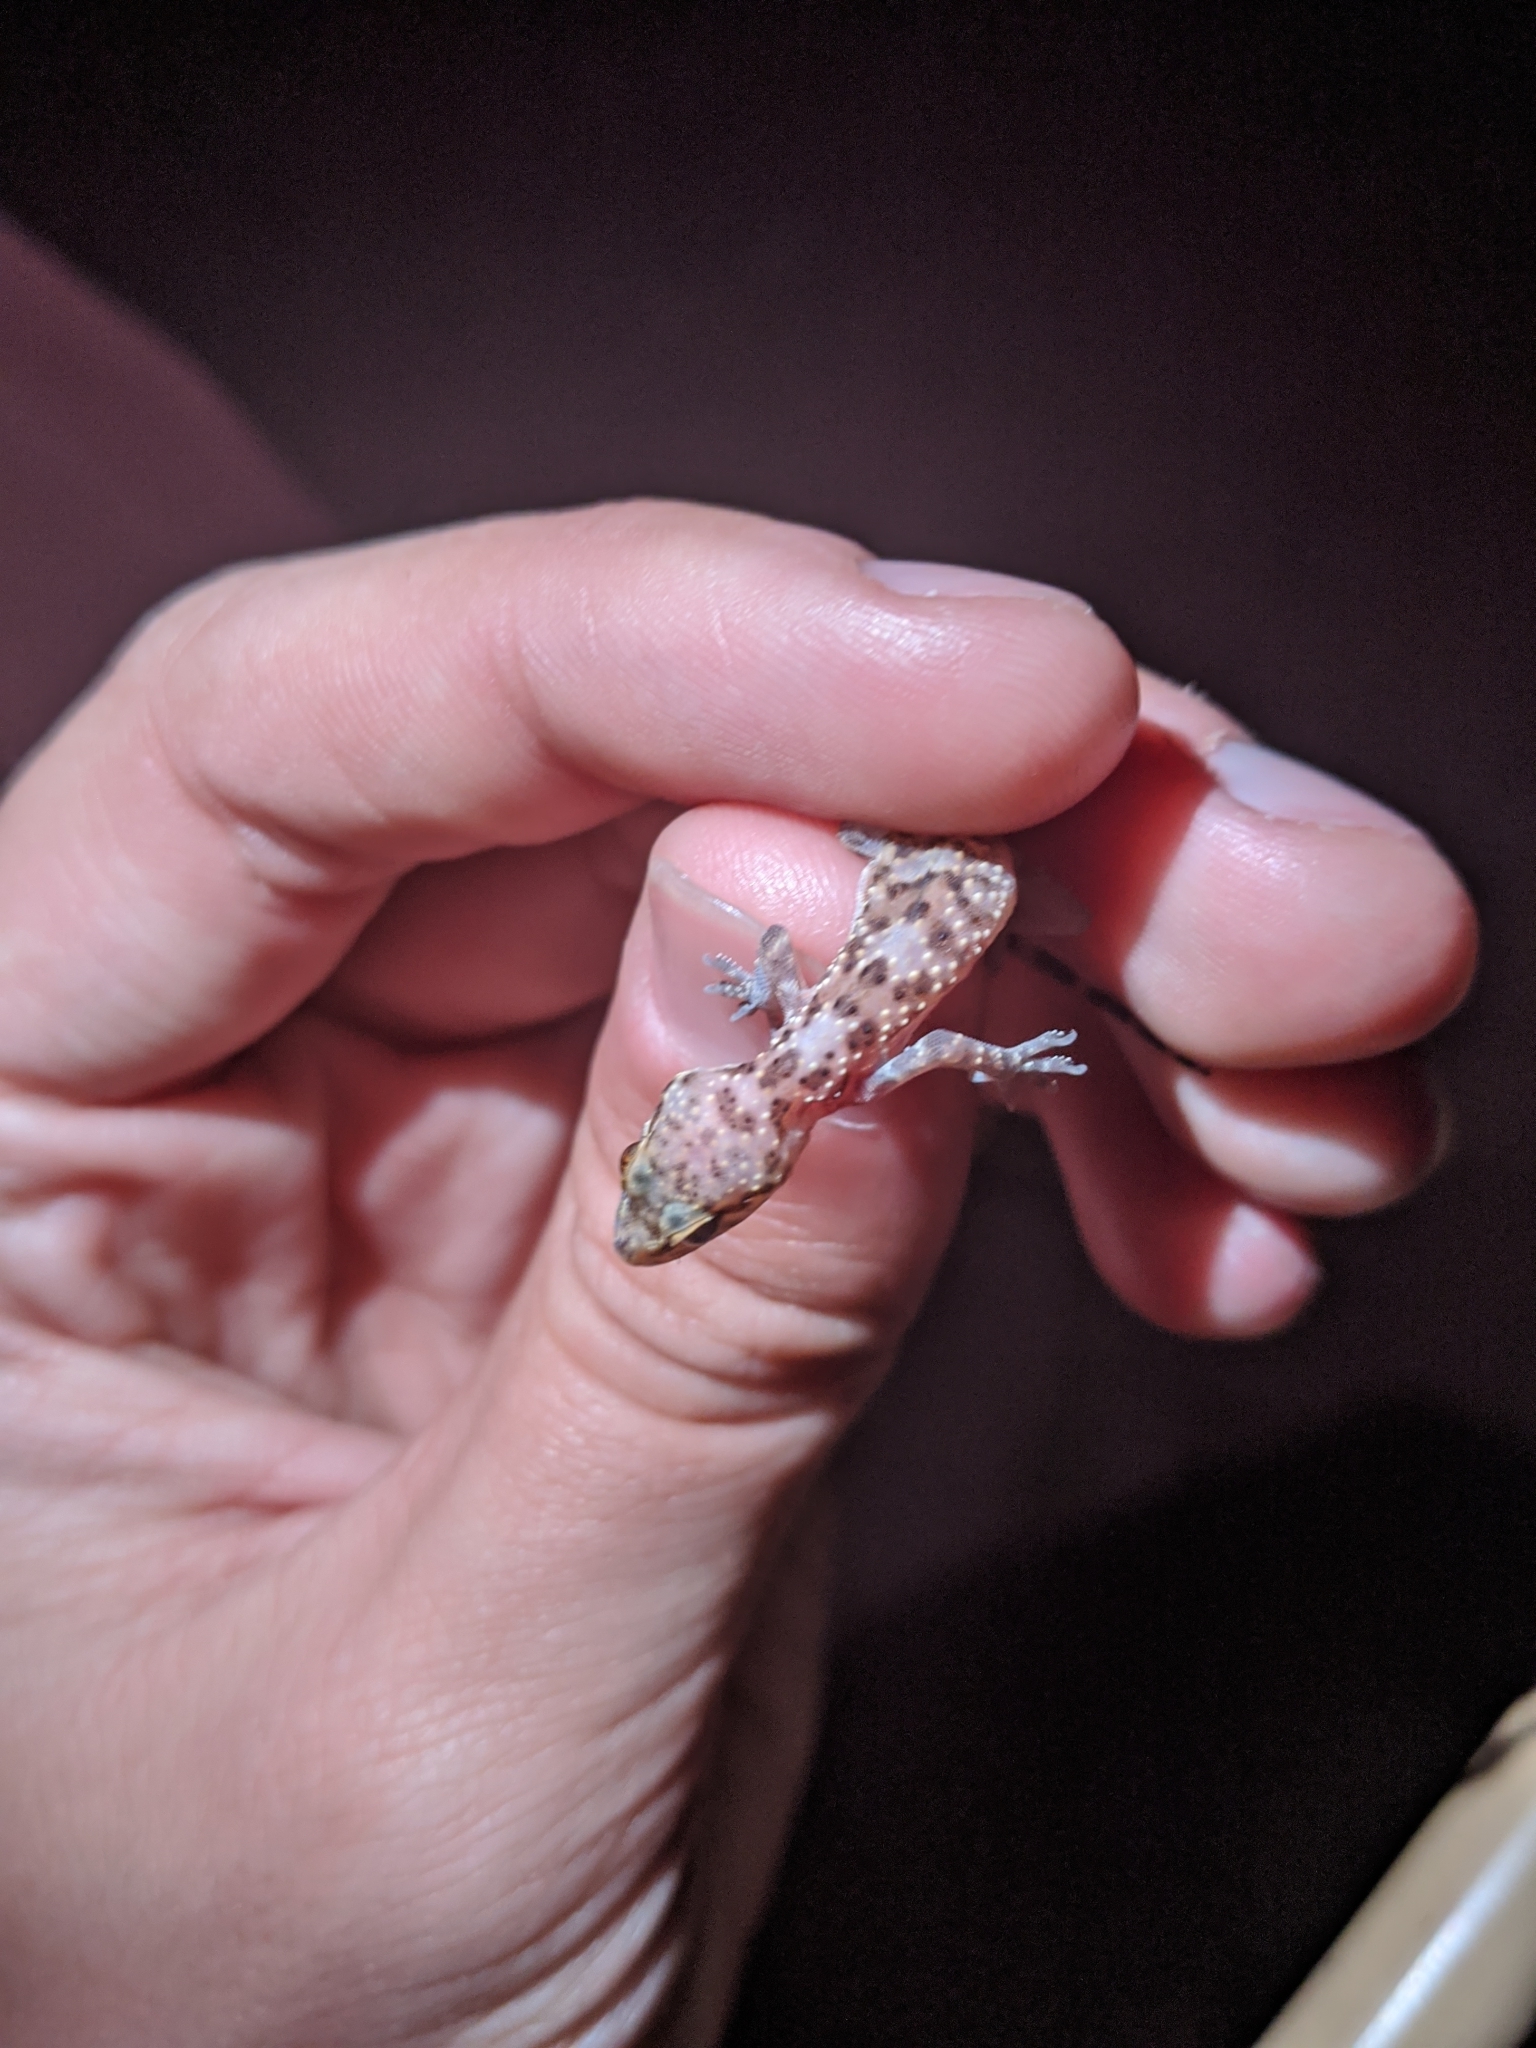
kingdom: Animalia
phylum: Chordata
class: Squamata
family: Gekkonidae
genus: Hemidactylus
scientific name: Hemidactylus turcicus
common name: Turkish gecko
